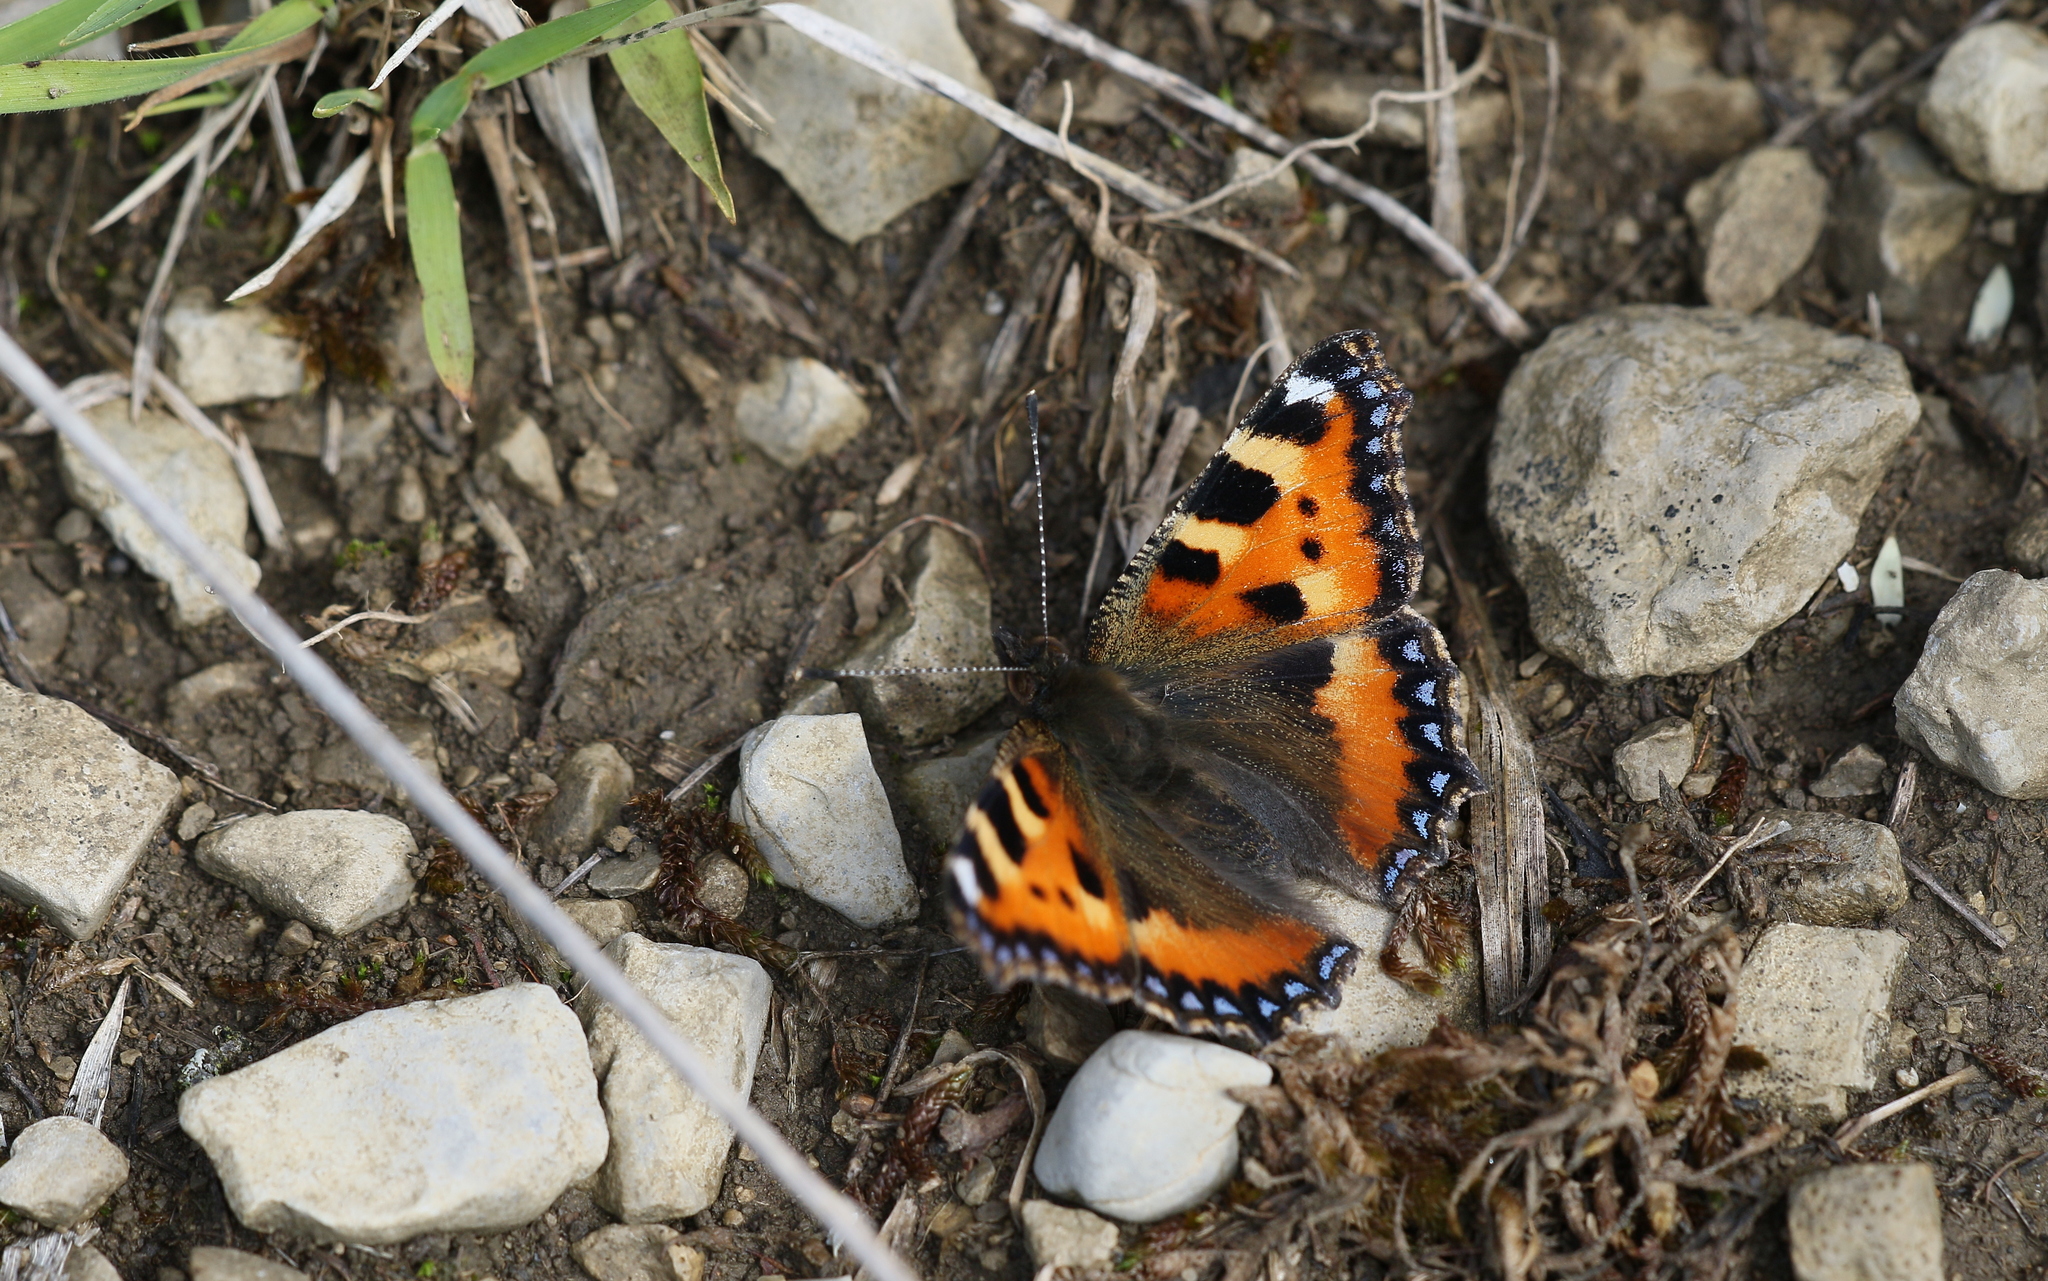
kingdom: Animalia
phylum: Arthropoda
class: Insecta
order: Lepidoptera
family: Nymphalidae
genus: Aglais
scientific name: Aglais urticae
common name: Small tortoiseshell
